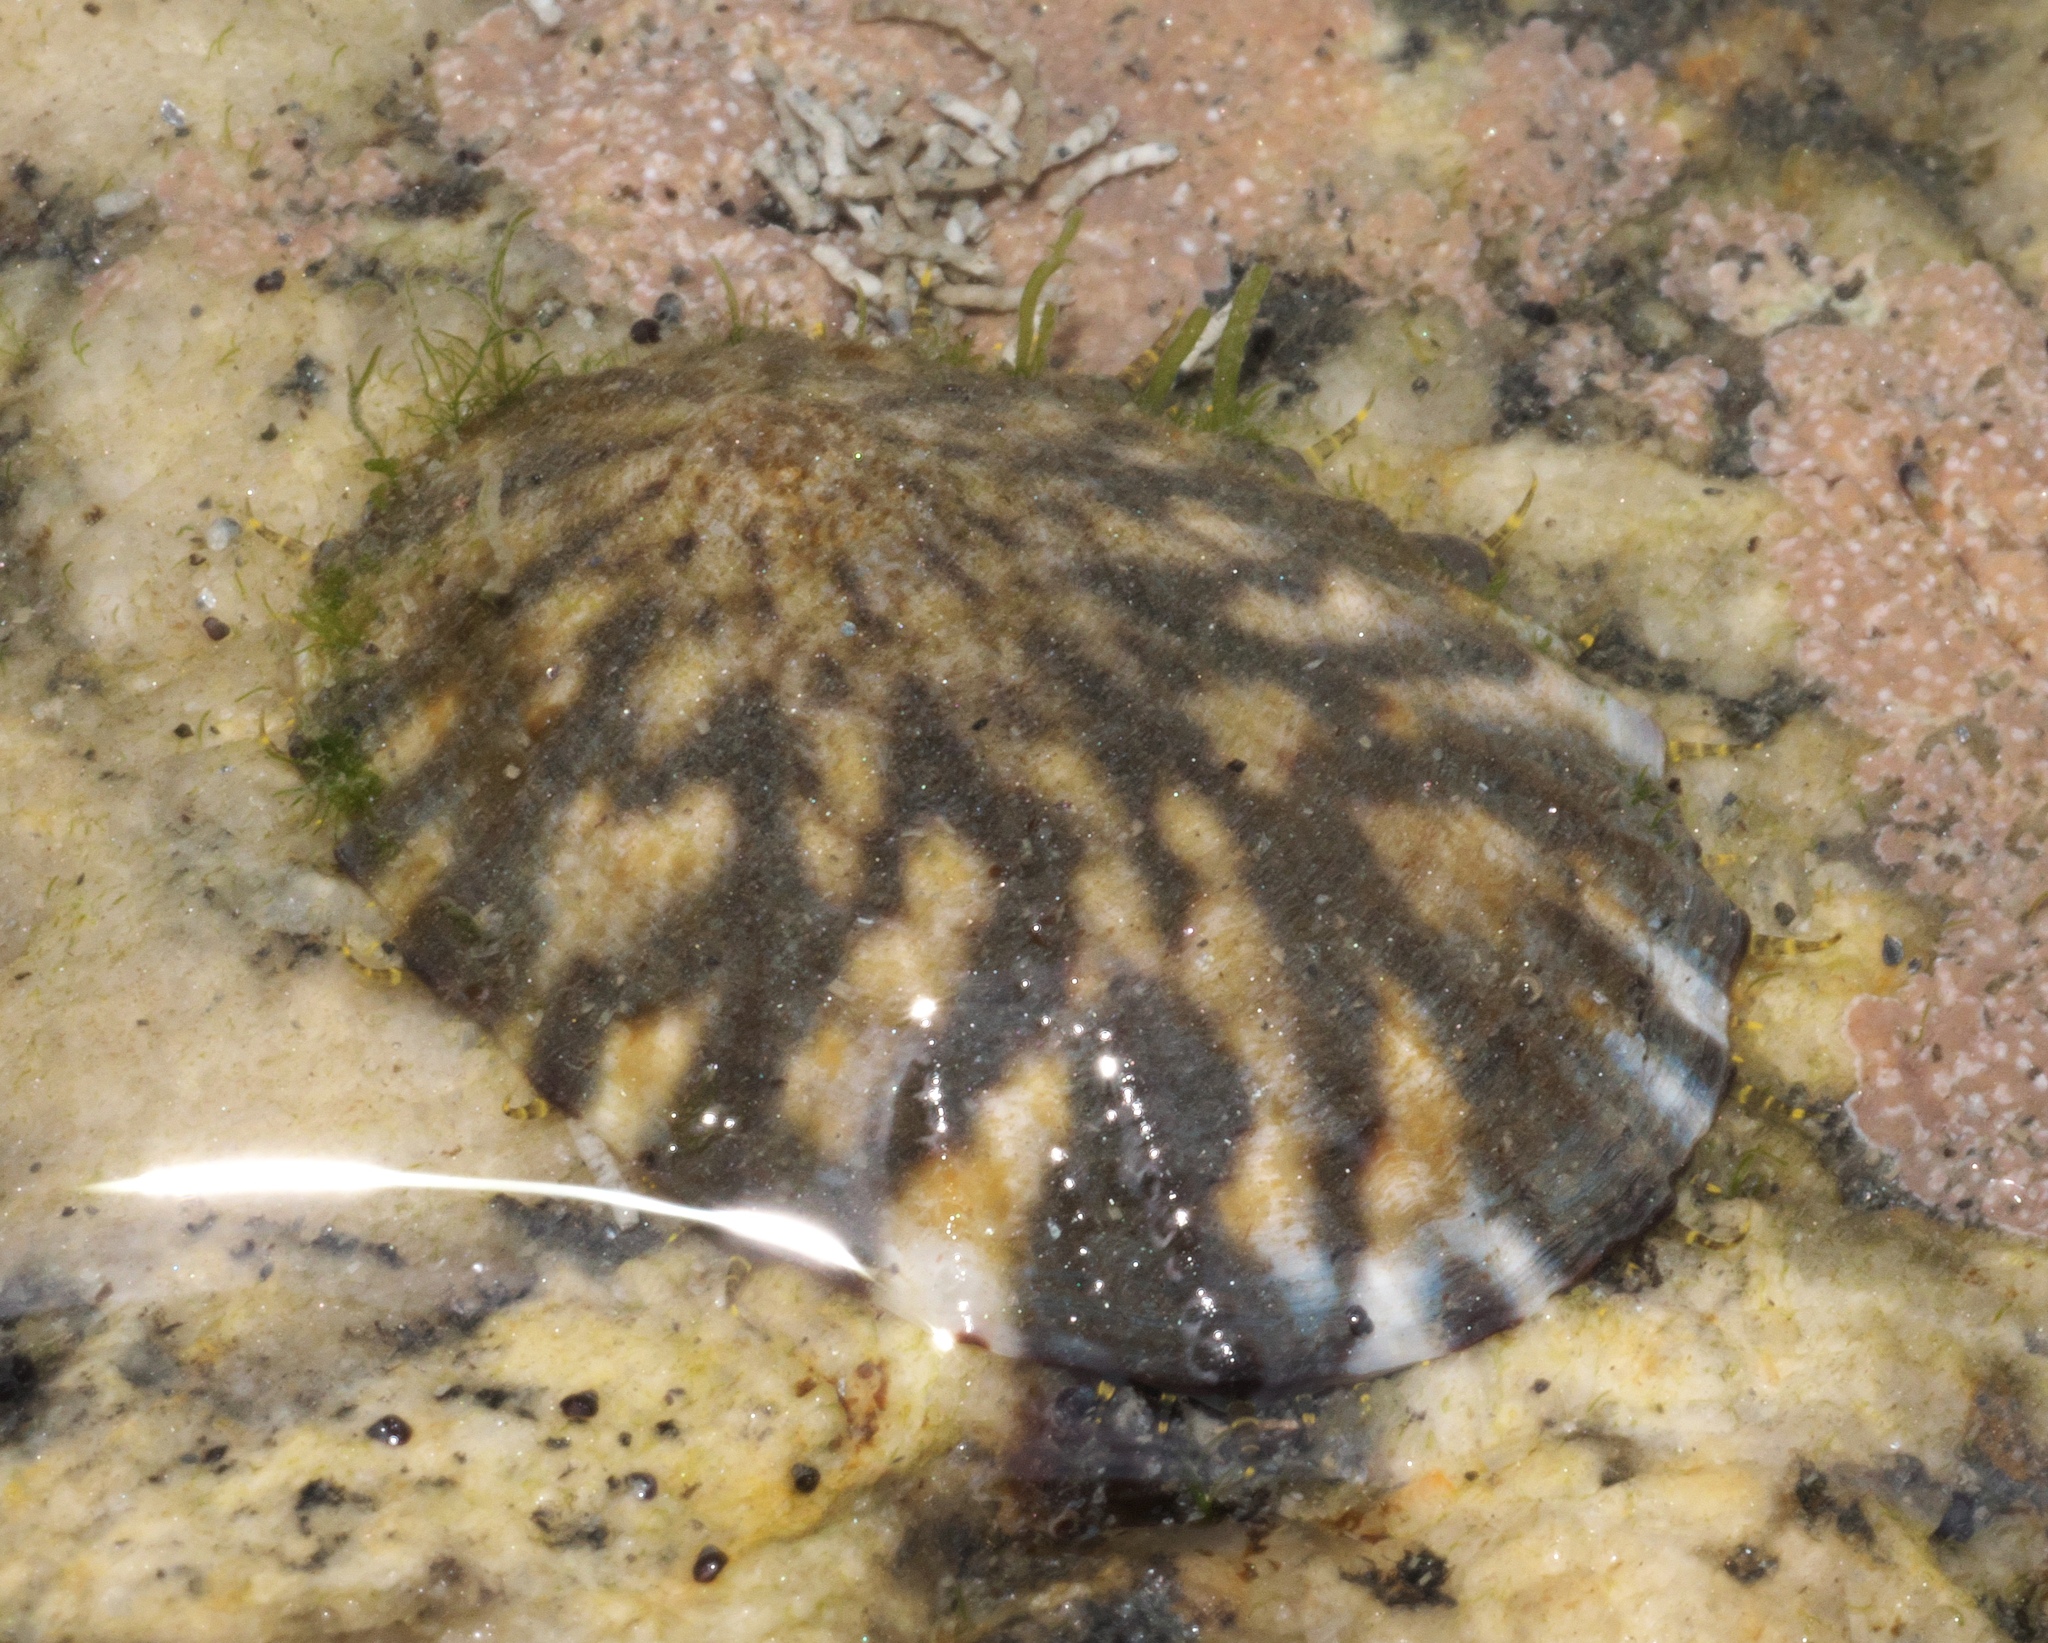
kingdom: Animalia
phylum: Mollusca
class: Gastropoda
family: Nacellidae
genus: Cellana
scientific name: Cellana radians
